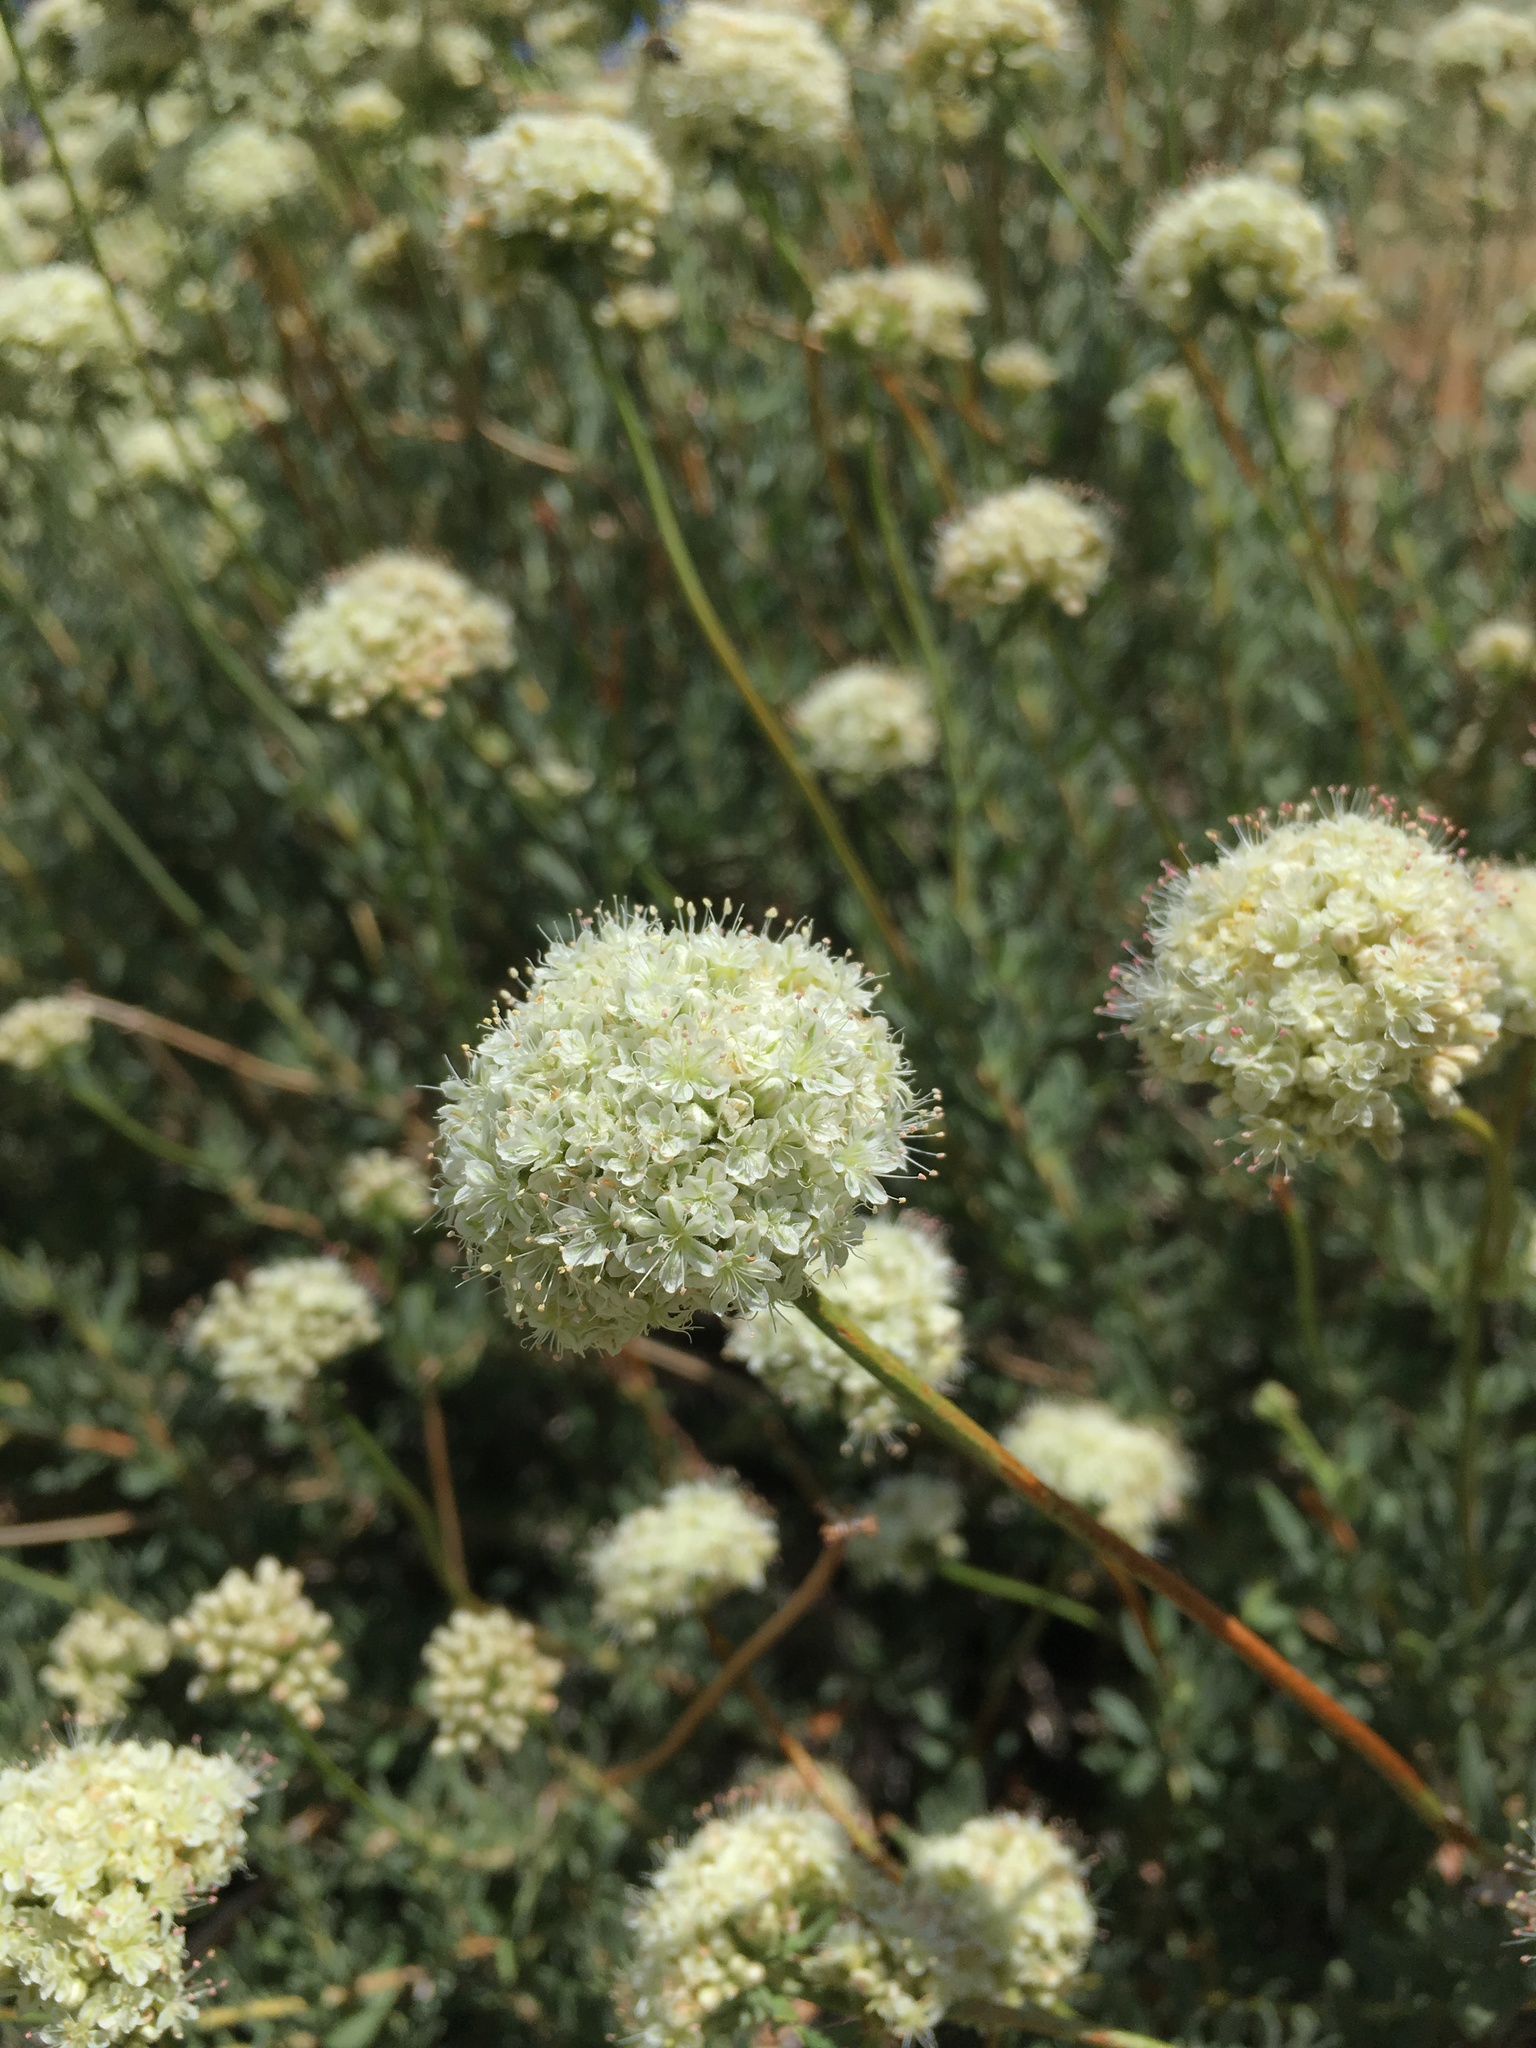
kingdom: Plantae
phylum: Tracheophyta
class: Magnoliopsida
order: Caryophyllales
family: Polygonaceae
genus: Eriogonum
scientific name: Eriogonum fasciculatum
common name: California wild buckwheat
